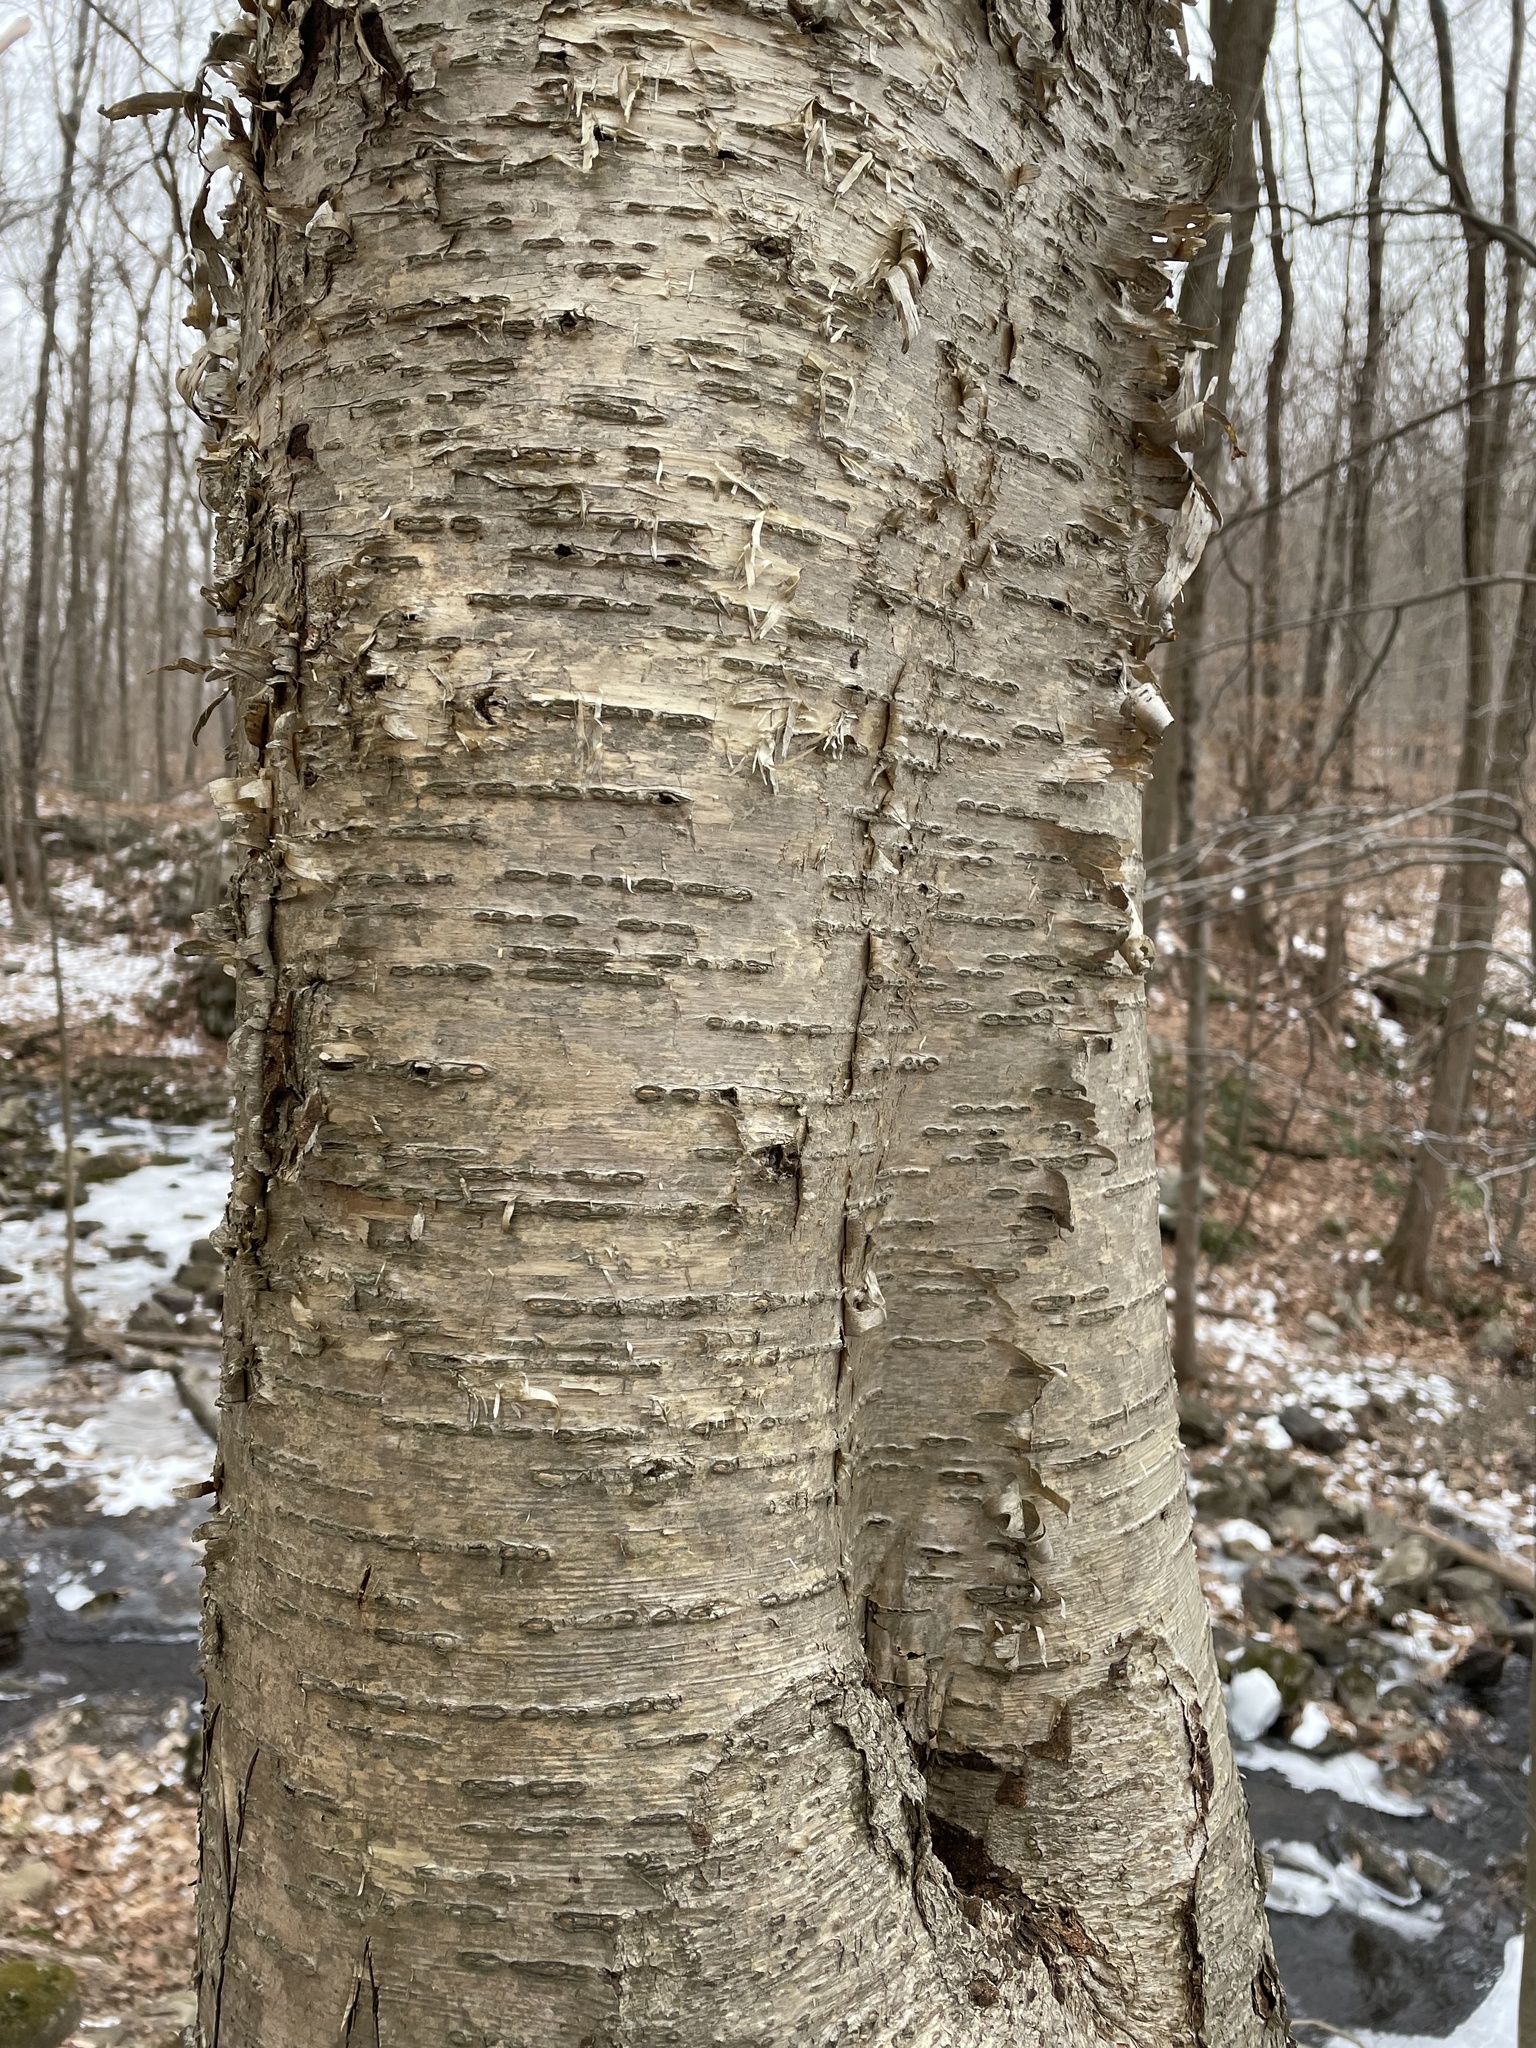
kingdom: Plantae
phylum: Tracheophyta
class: Magnoliopsida
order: Fagales
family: Betulaceae
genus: Betula
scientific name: Betula alleghaniensis
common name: Yellow birch
